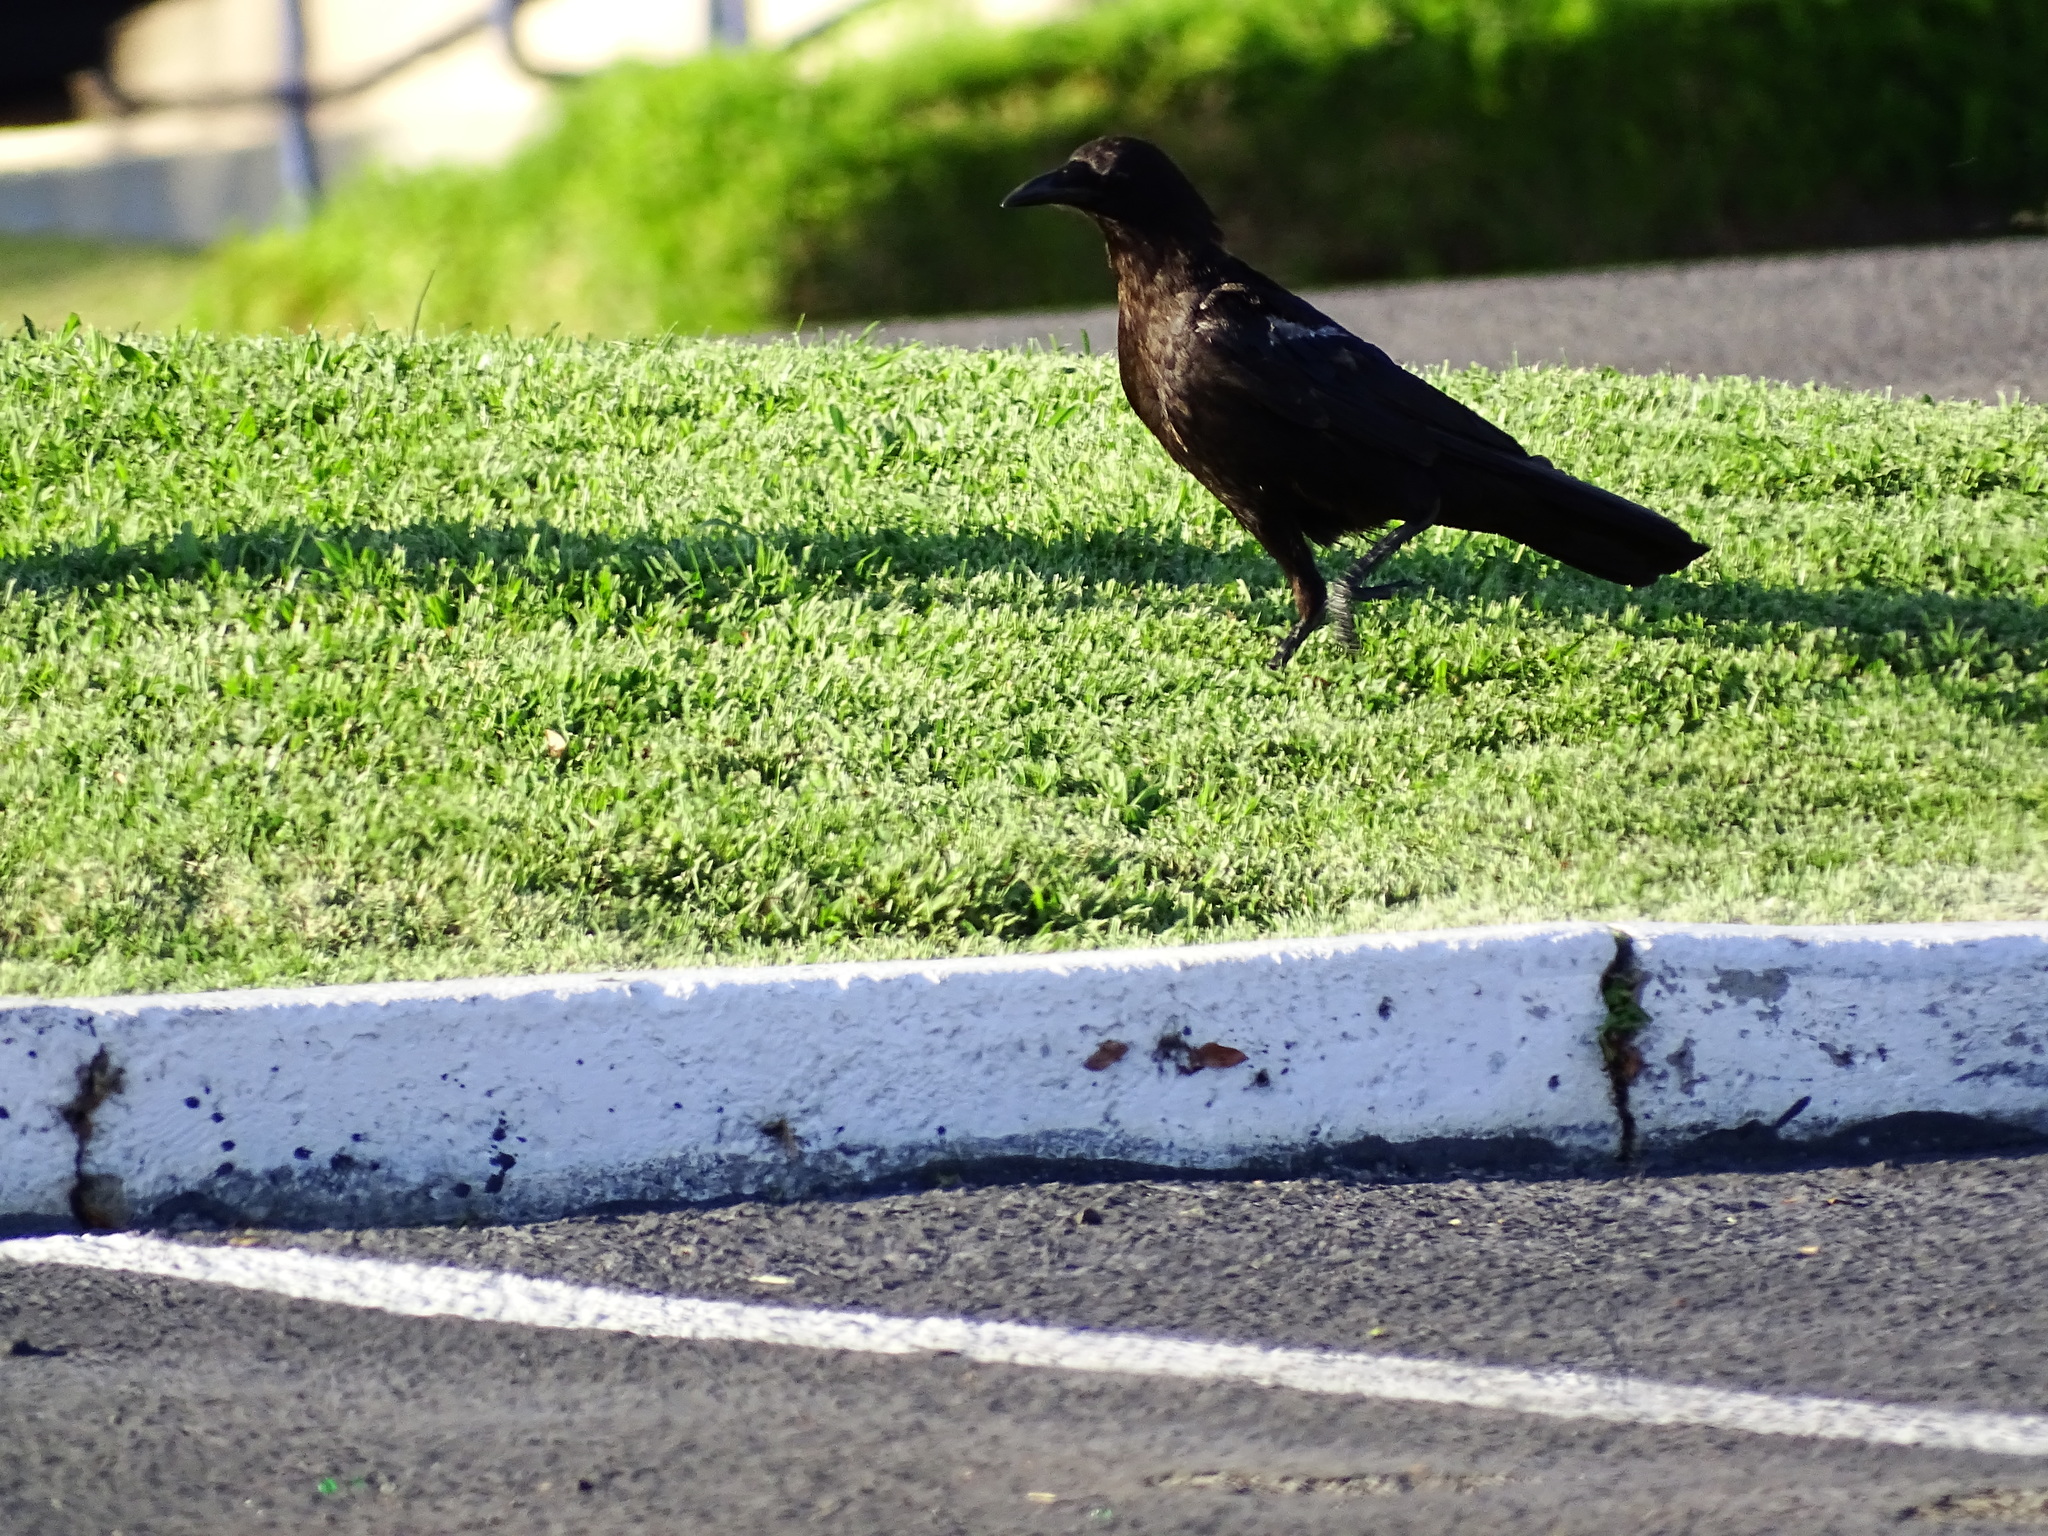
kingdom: Animalia
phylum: Chordata
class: Aves
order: Passeriformes
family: Corvidae
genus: Corvus
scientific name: Corvus brachyrhynchos
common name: American crow
